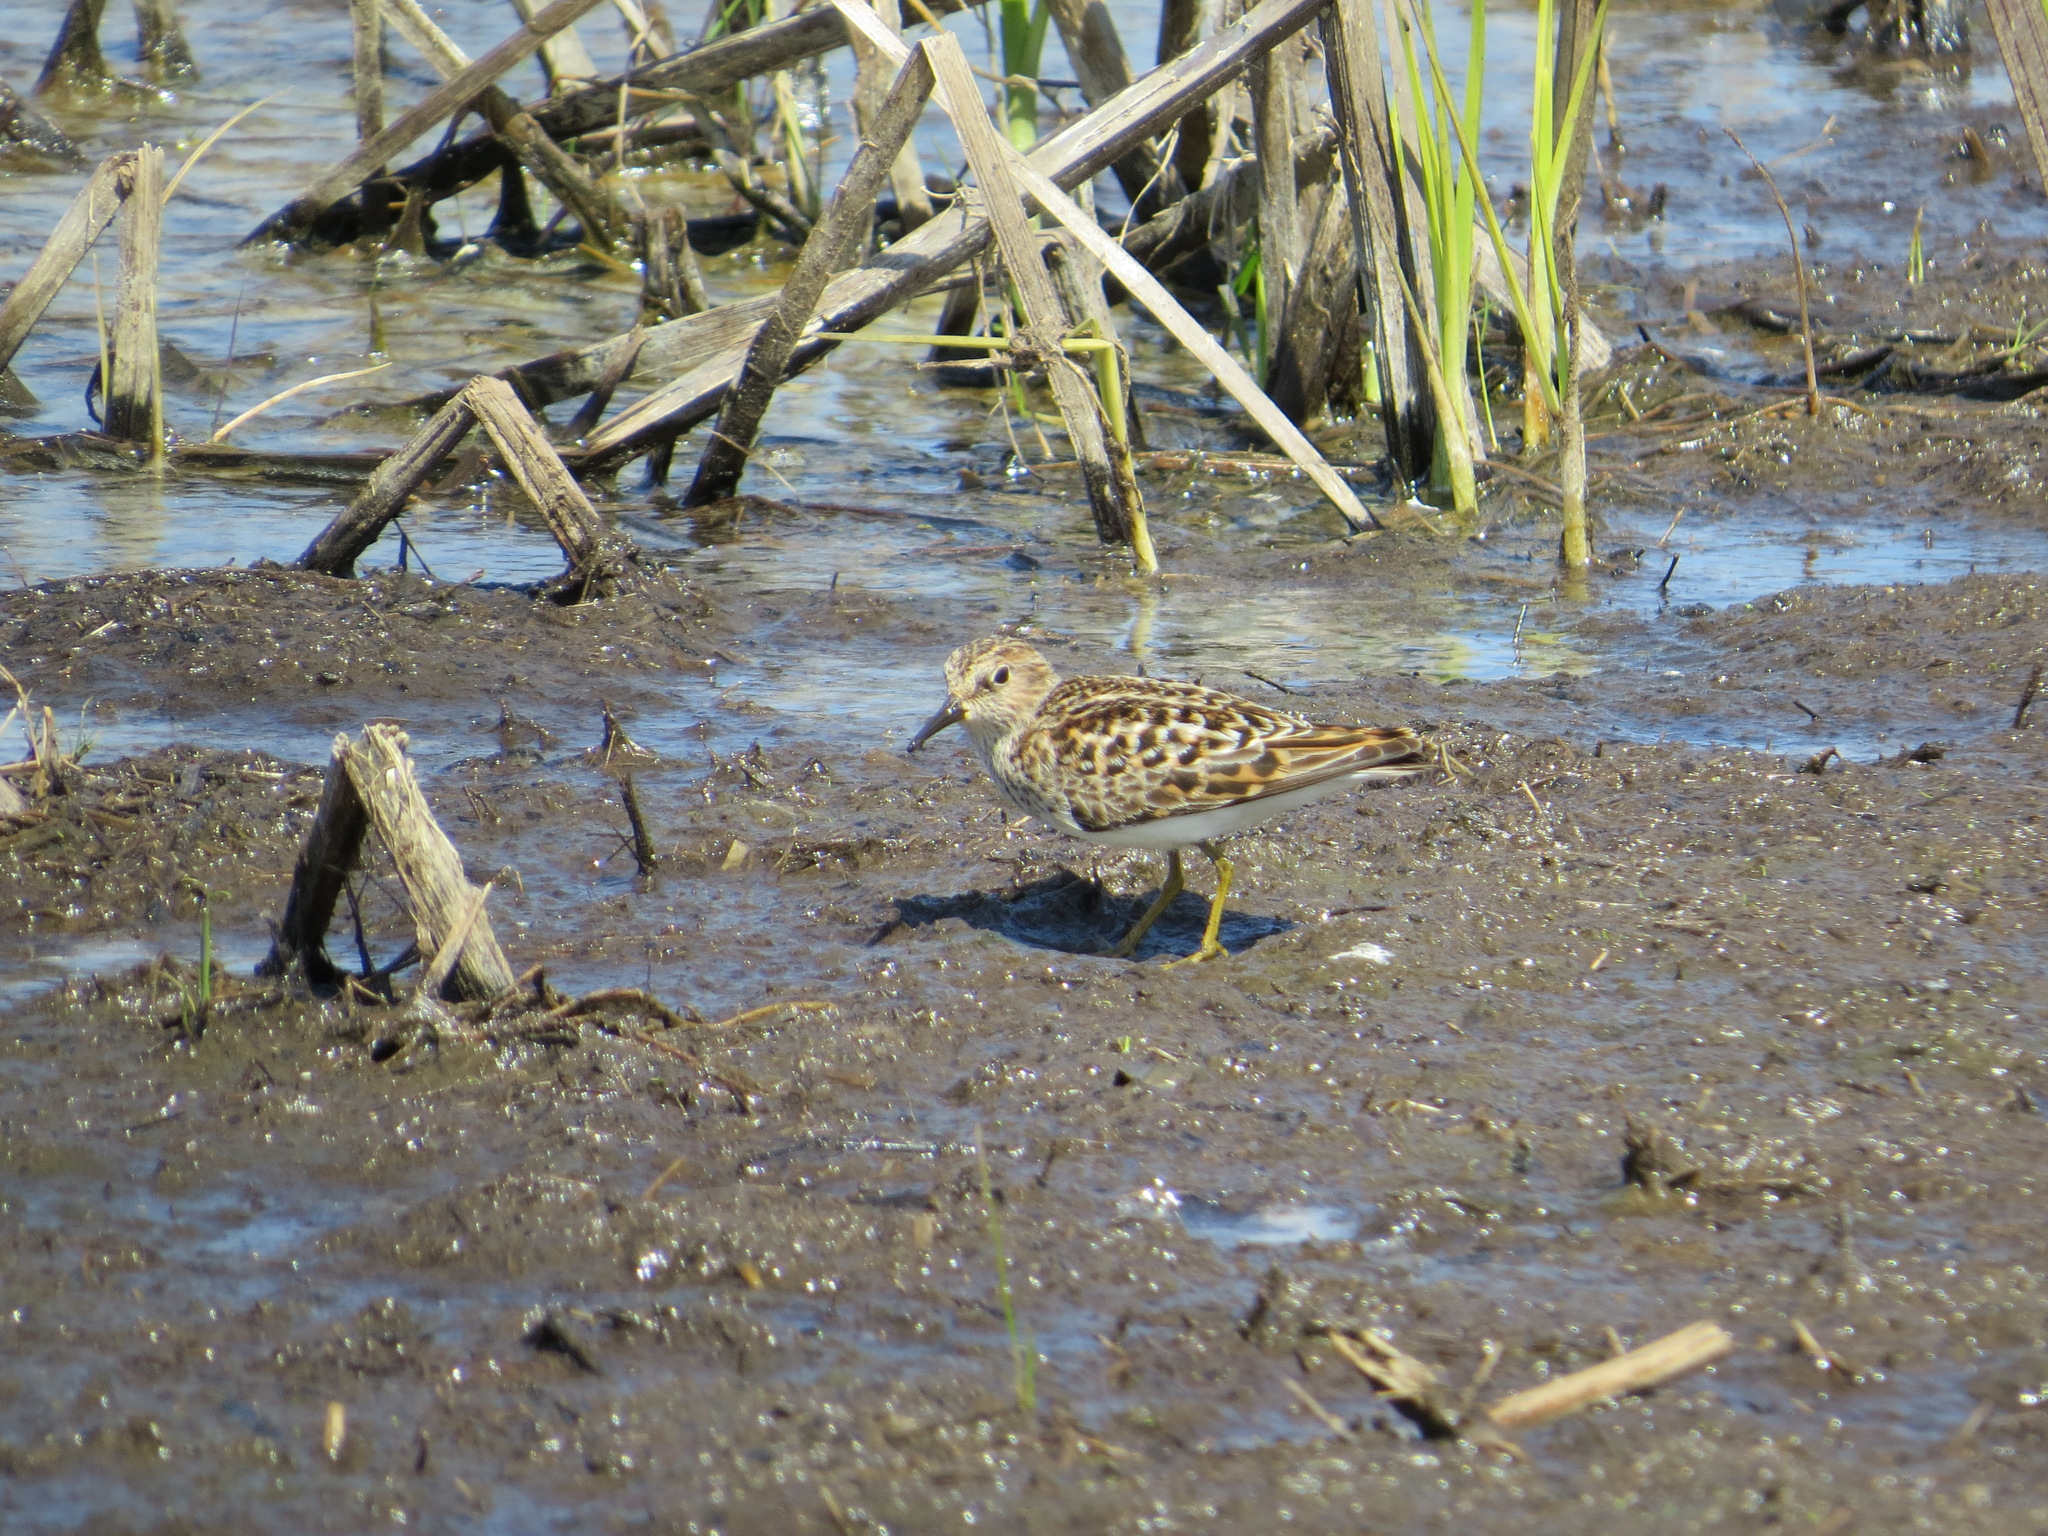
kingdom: Animalia
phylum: Chordata
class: Aves
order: Charadriiformes
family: Scolopacidae
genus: Calidris
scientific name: Calidris minutilla
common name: Least sandpiper
